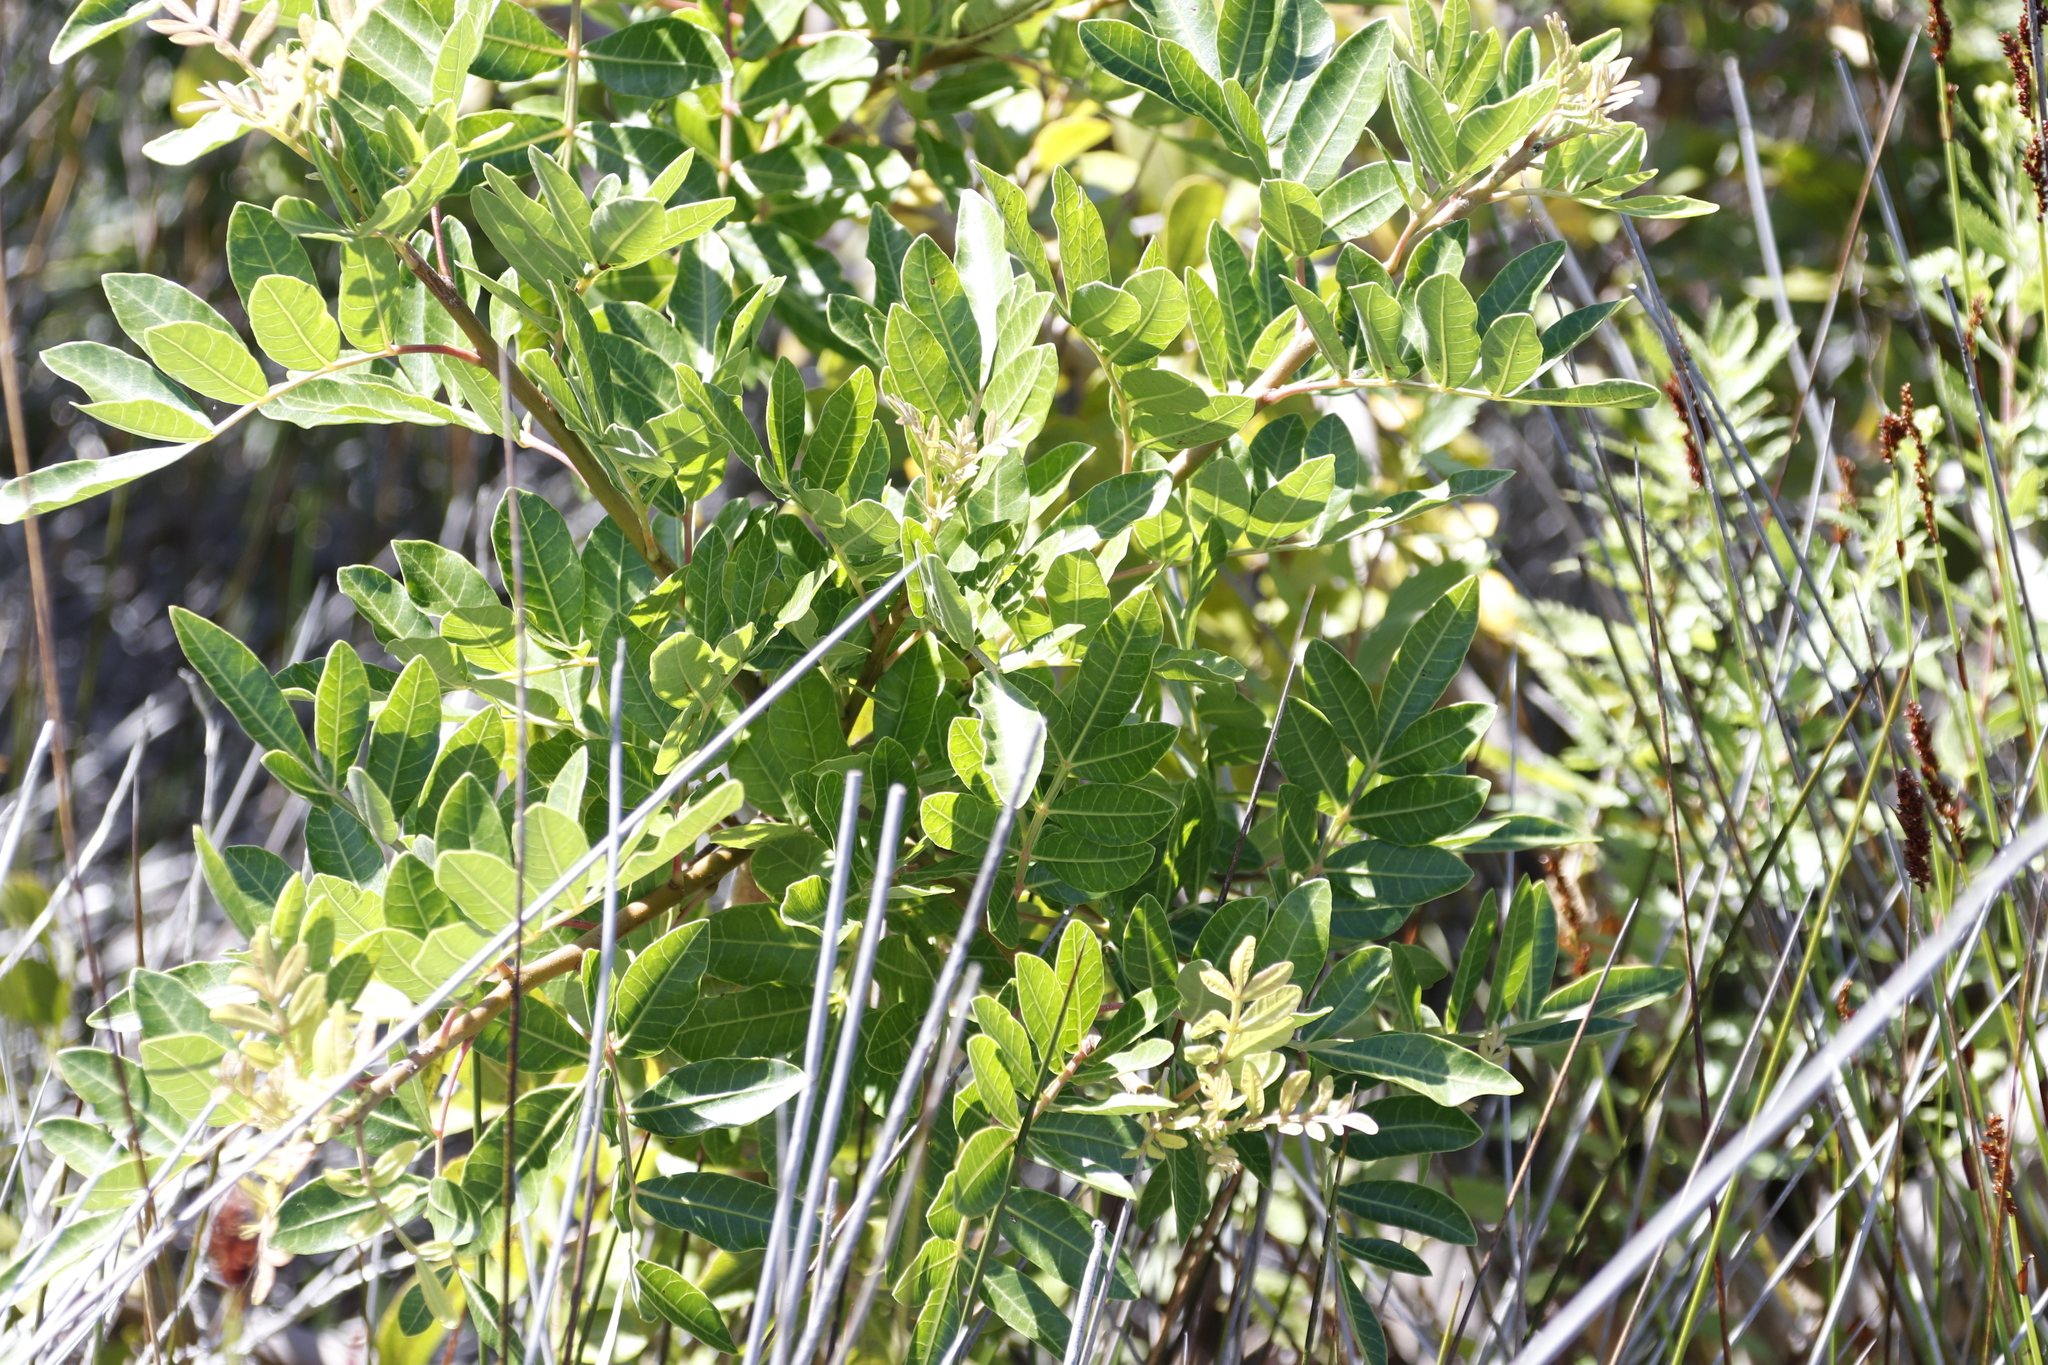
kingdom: Plantae
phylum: Tracheophyta
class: Magnoliopsida
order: Sapindales
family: Anacardiaceae
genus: Schinus
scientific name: Schinus terebinthifolia
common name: Brazilian peppertree
